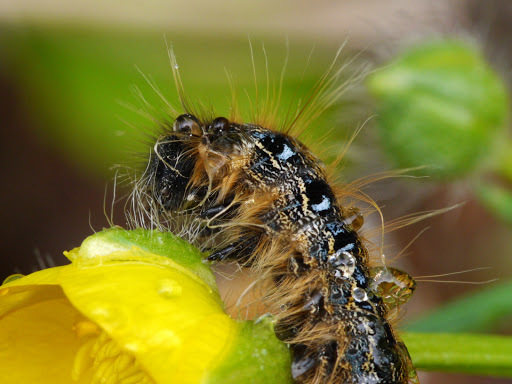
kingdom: Animalia
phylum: Arthropoda
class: Insecta
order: Lepidoptera
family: Lasiocampidae
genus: Malacosoma
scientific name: Malacosoma americana
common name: Eastern tent caterpillar moth
